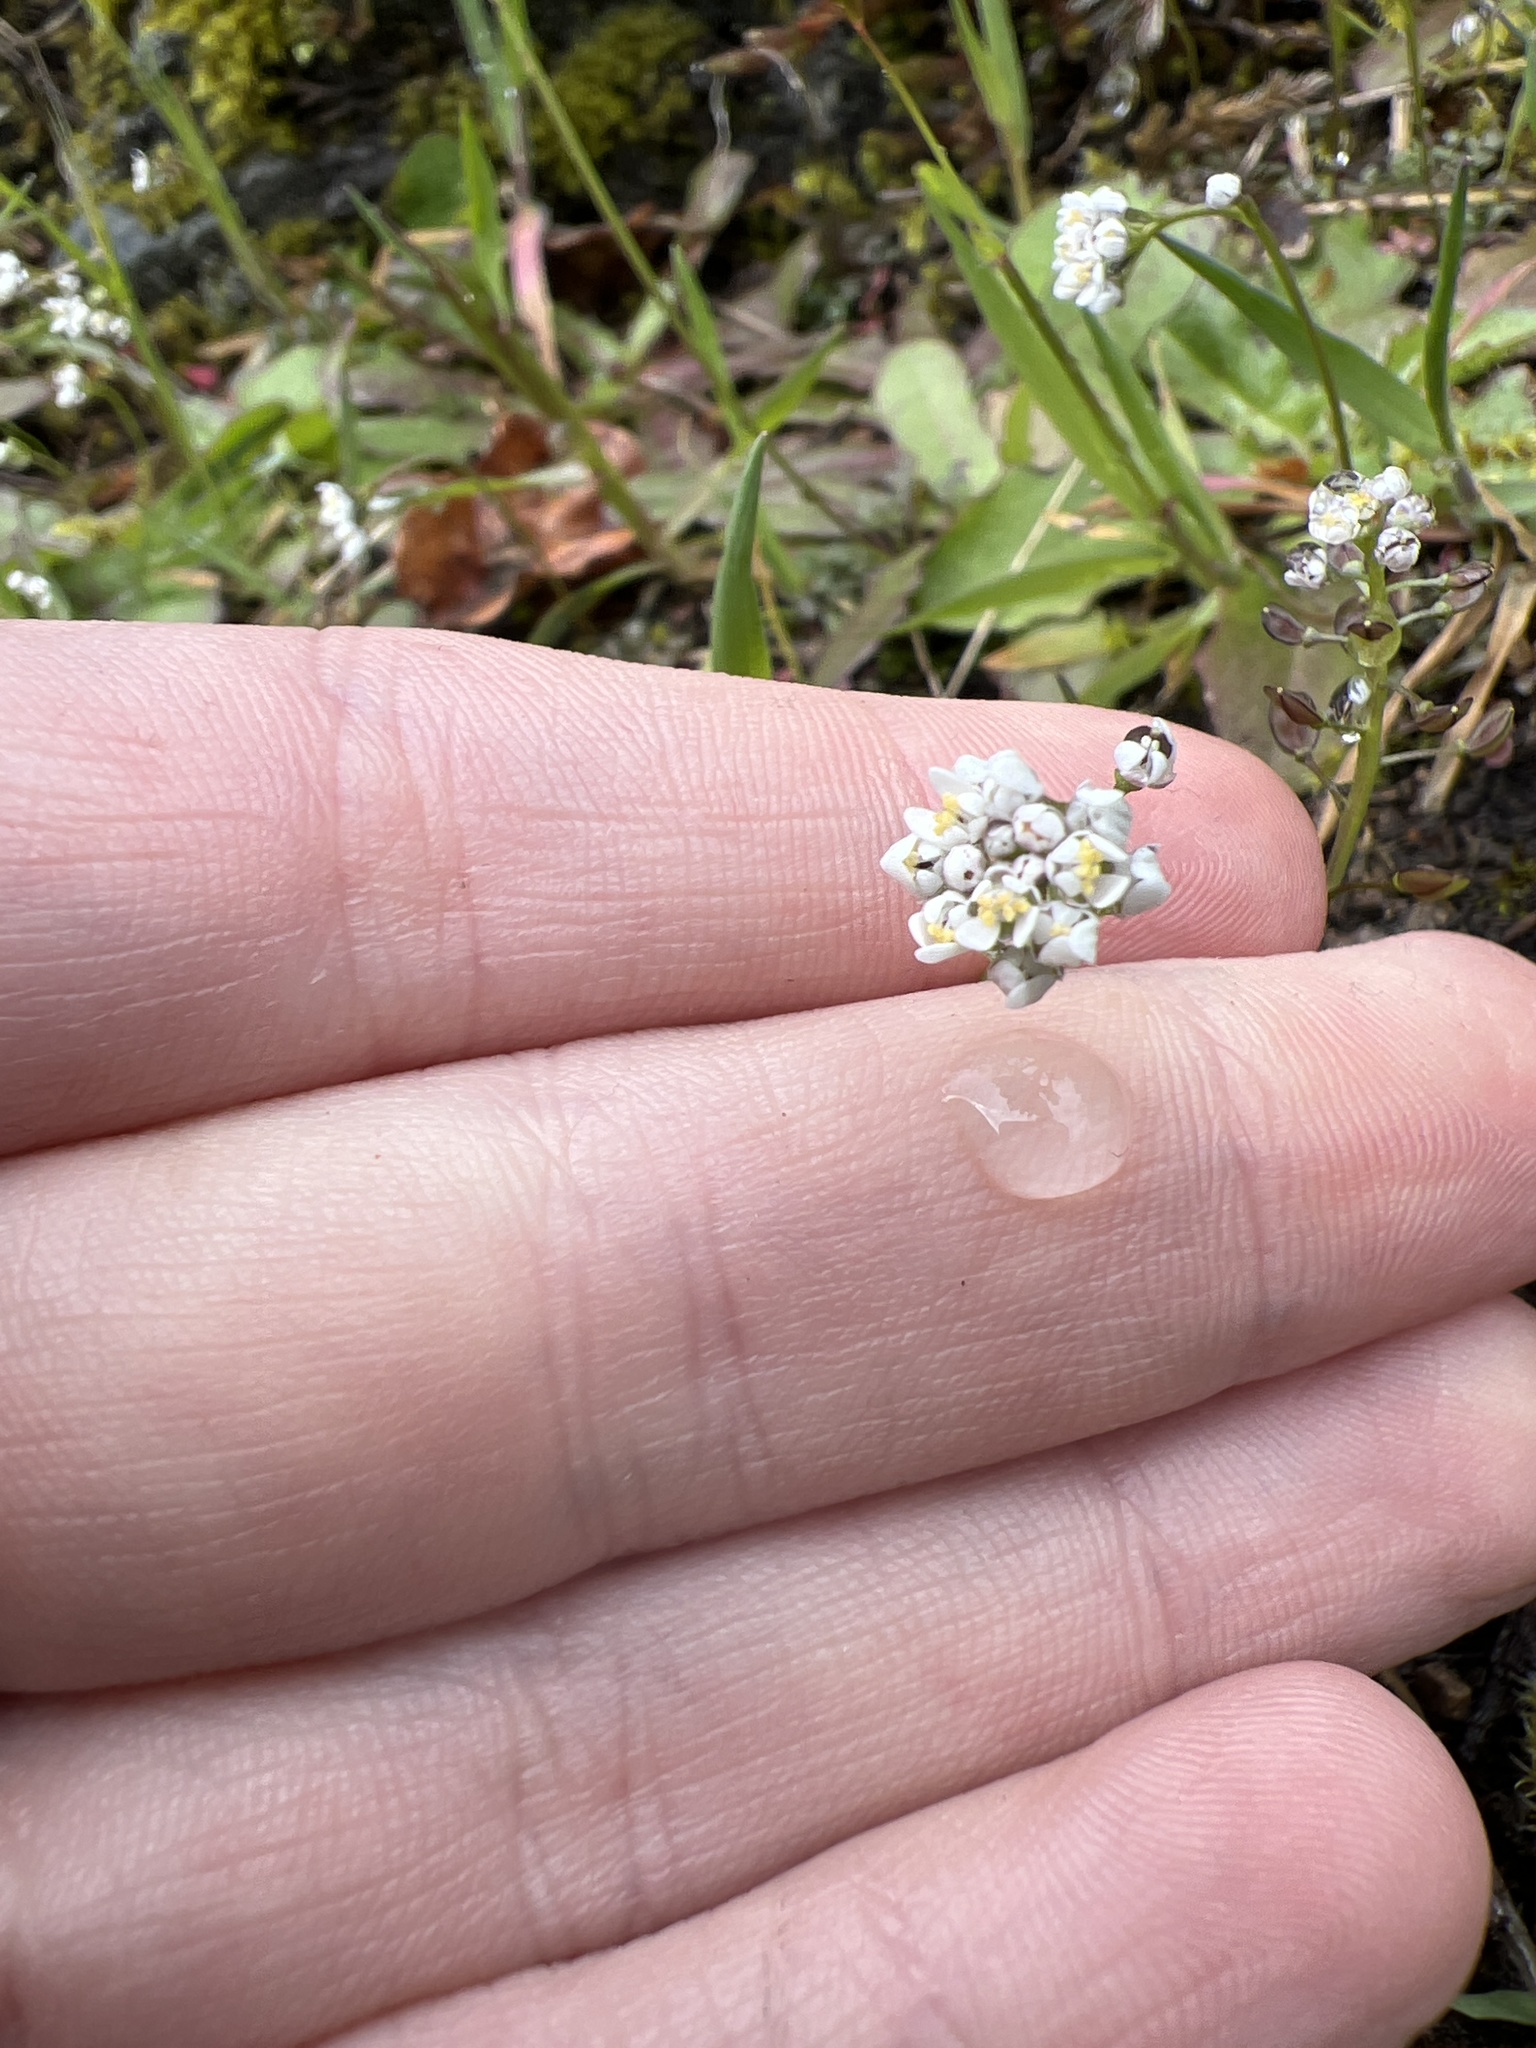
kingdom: Plantae
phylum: Tracheophyta
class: Magnoliopsida
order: Brassicales
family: Brassicaceae
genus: Teesdalia
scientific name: Teesdalia nudicaulis
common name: Shepherd's cress
